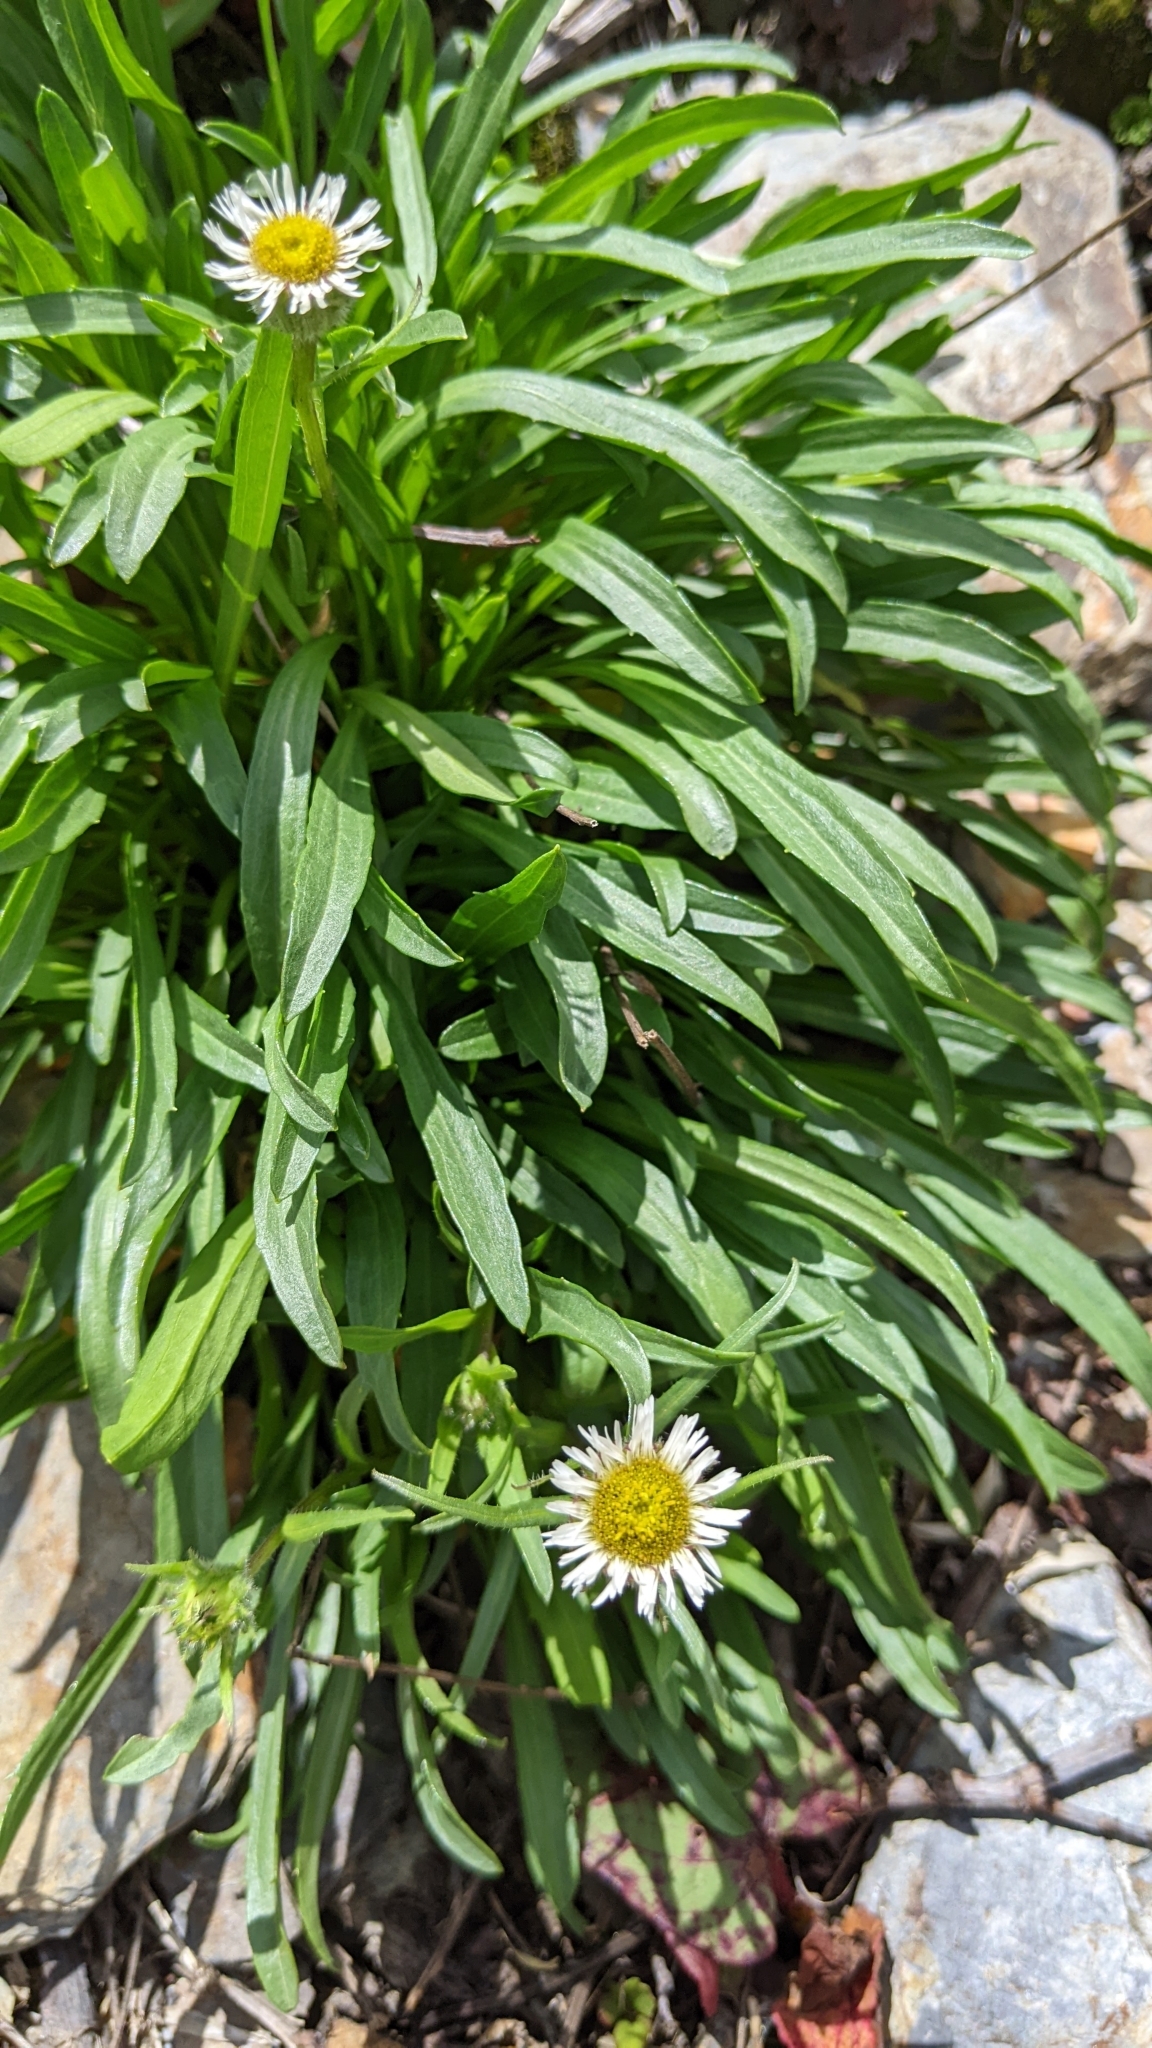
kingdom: Plantae
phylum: Tracheophyta
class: Magnoliopsida
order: Asterales
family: Asteraceae
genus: Erigeron
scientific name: Erigeron morrisonensis
